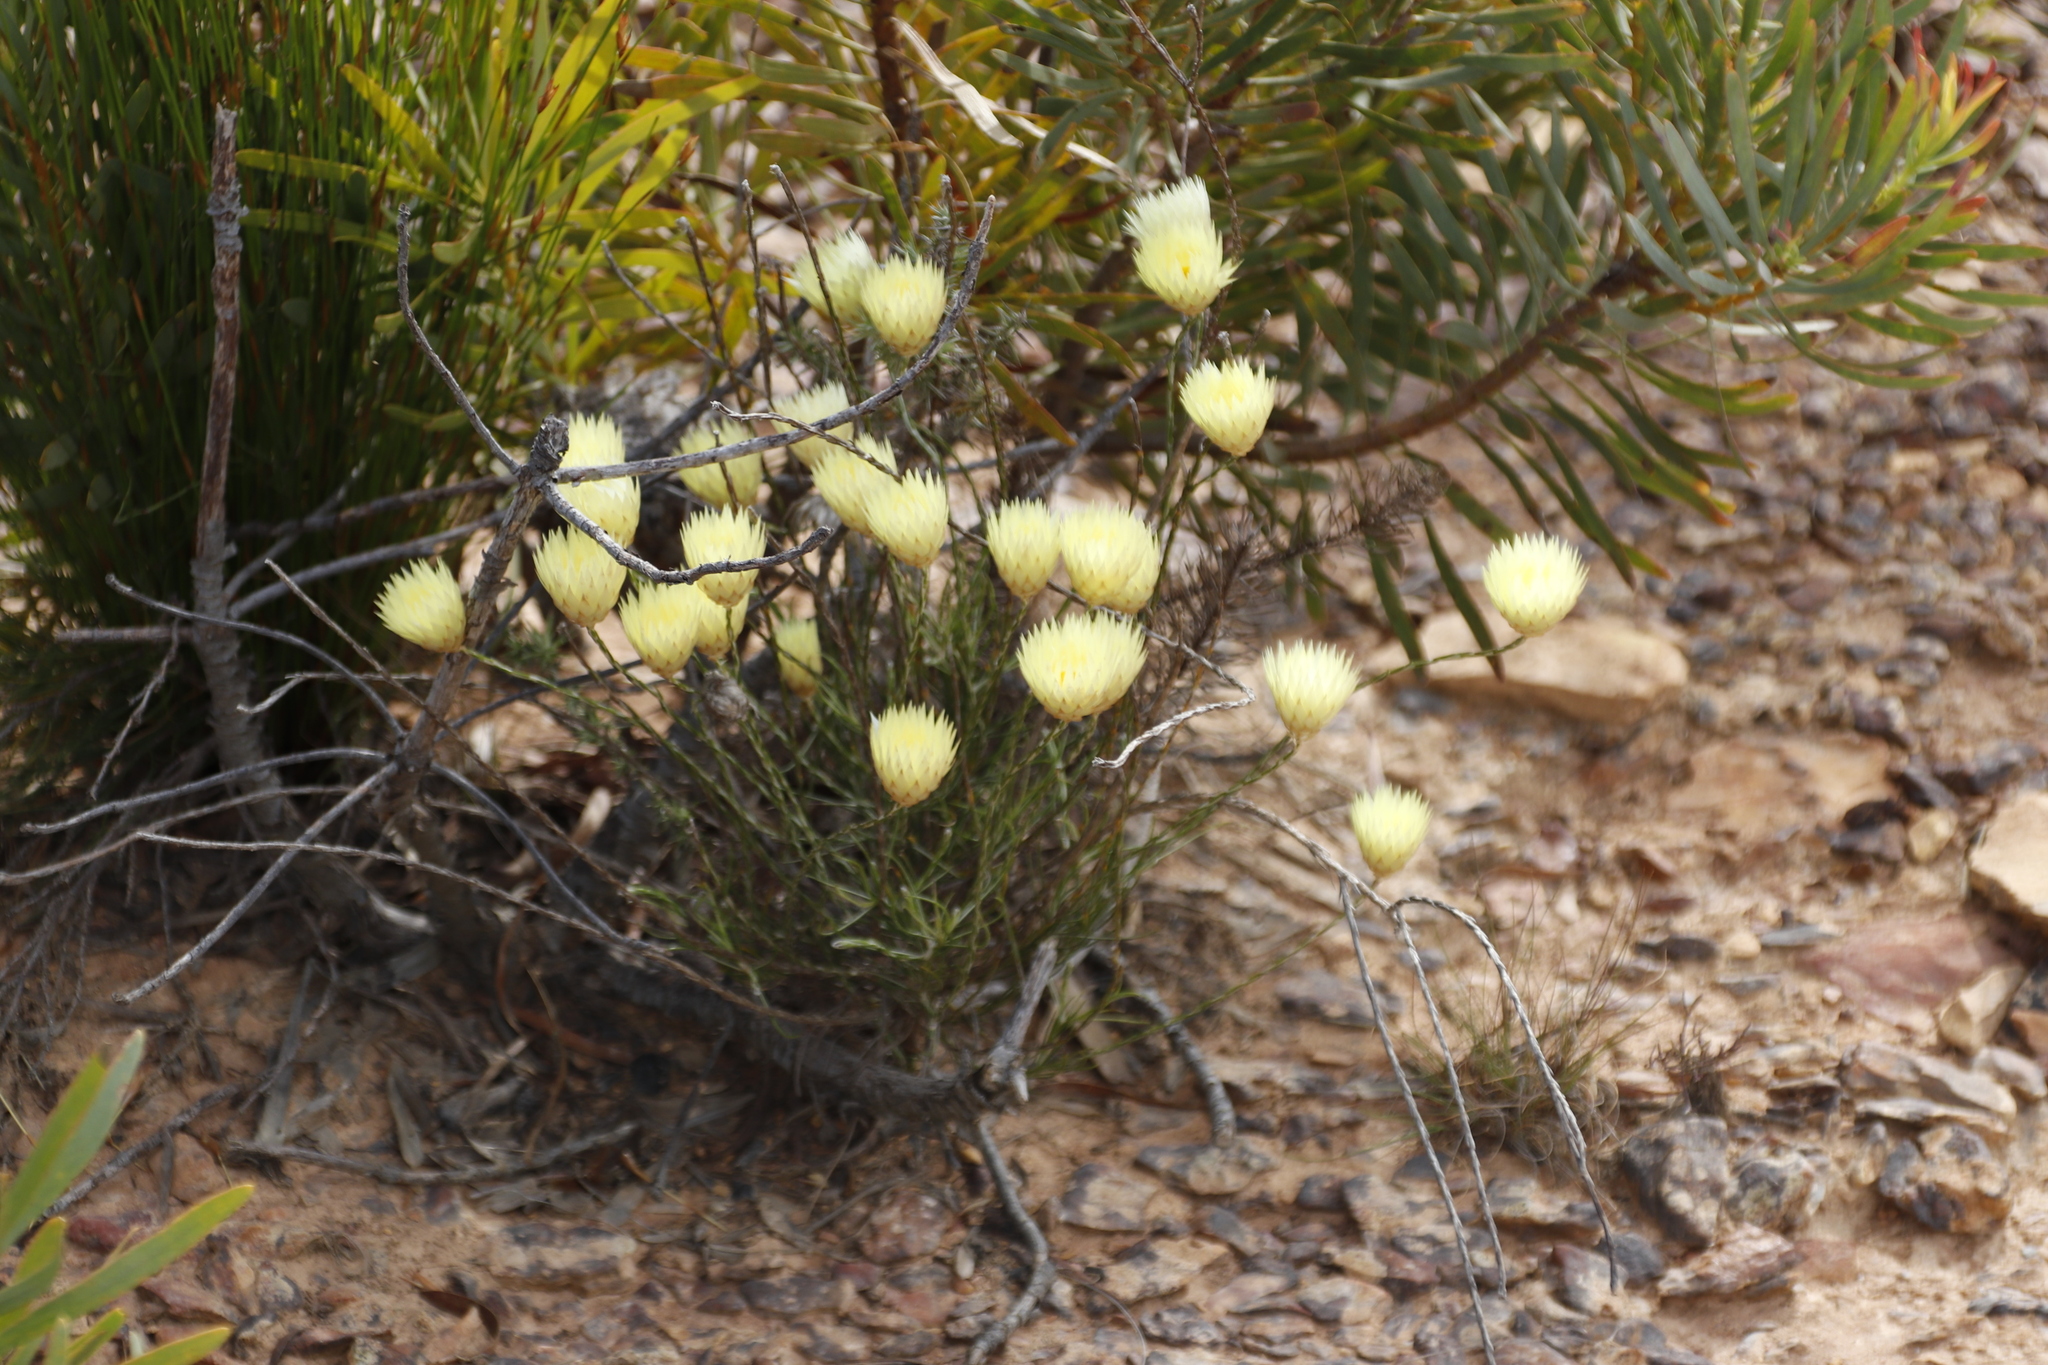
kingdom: Plantae
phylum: Tracheophyta
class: Magnoliopsida
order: Asterales
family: Asteraceae
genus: Edmondia
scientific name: Edmondia sesamoides
